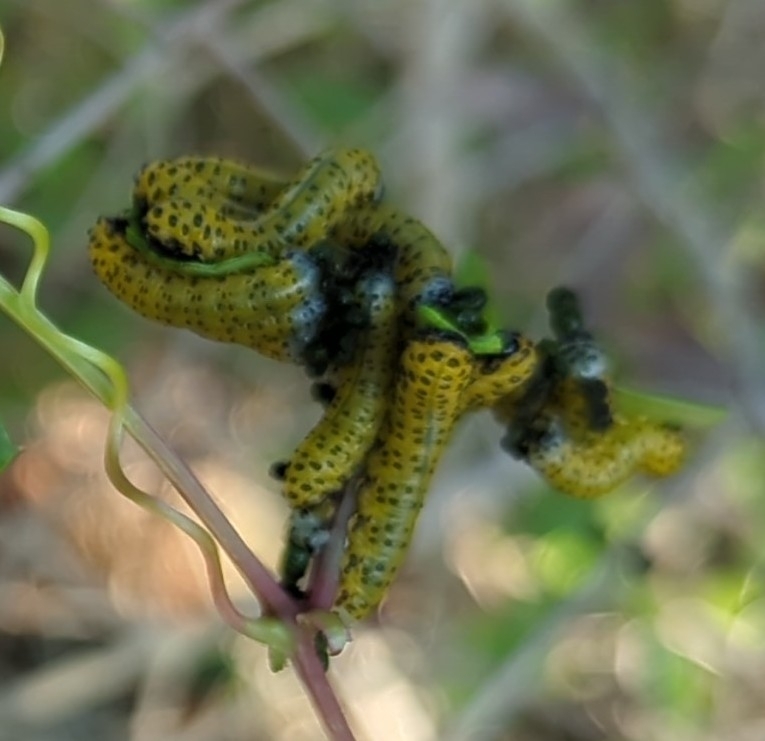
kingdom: Animalia
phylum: Arthropoda
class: Insecta
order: Hymenoptera
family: Tenthredinidae
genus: Ceratulus
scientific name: Ceratulus
